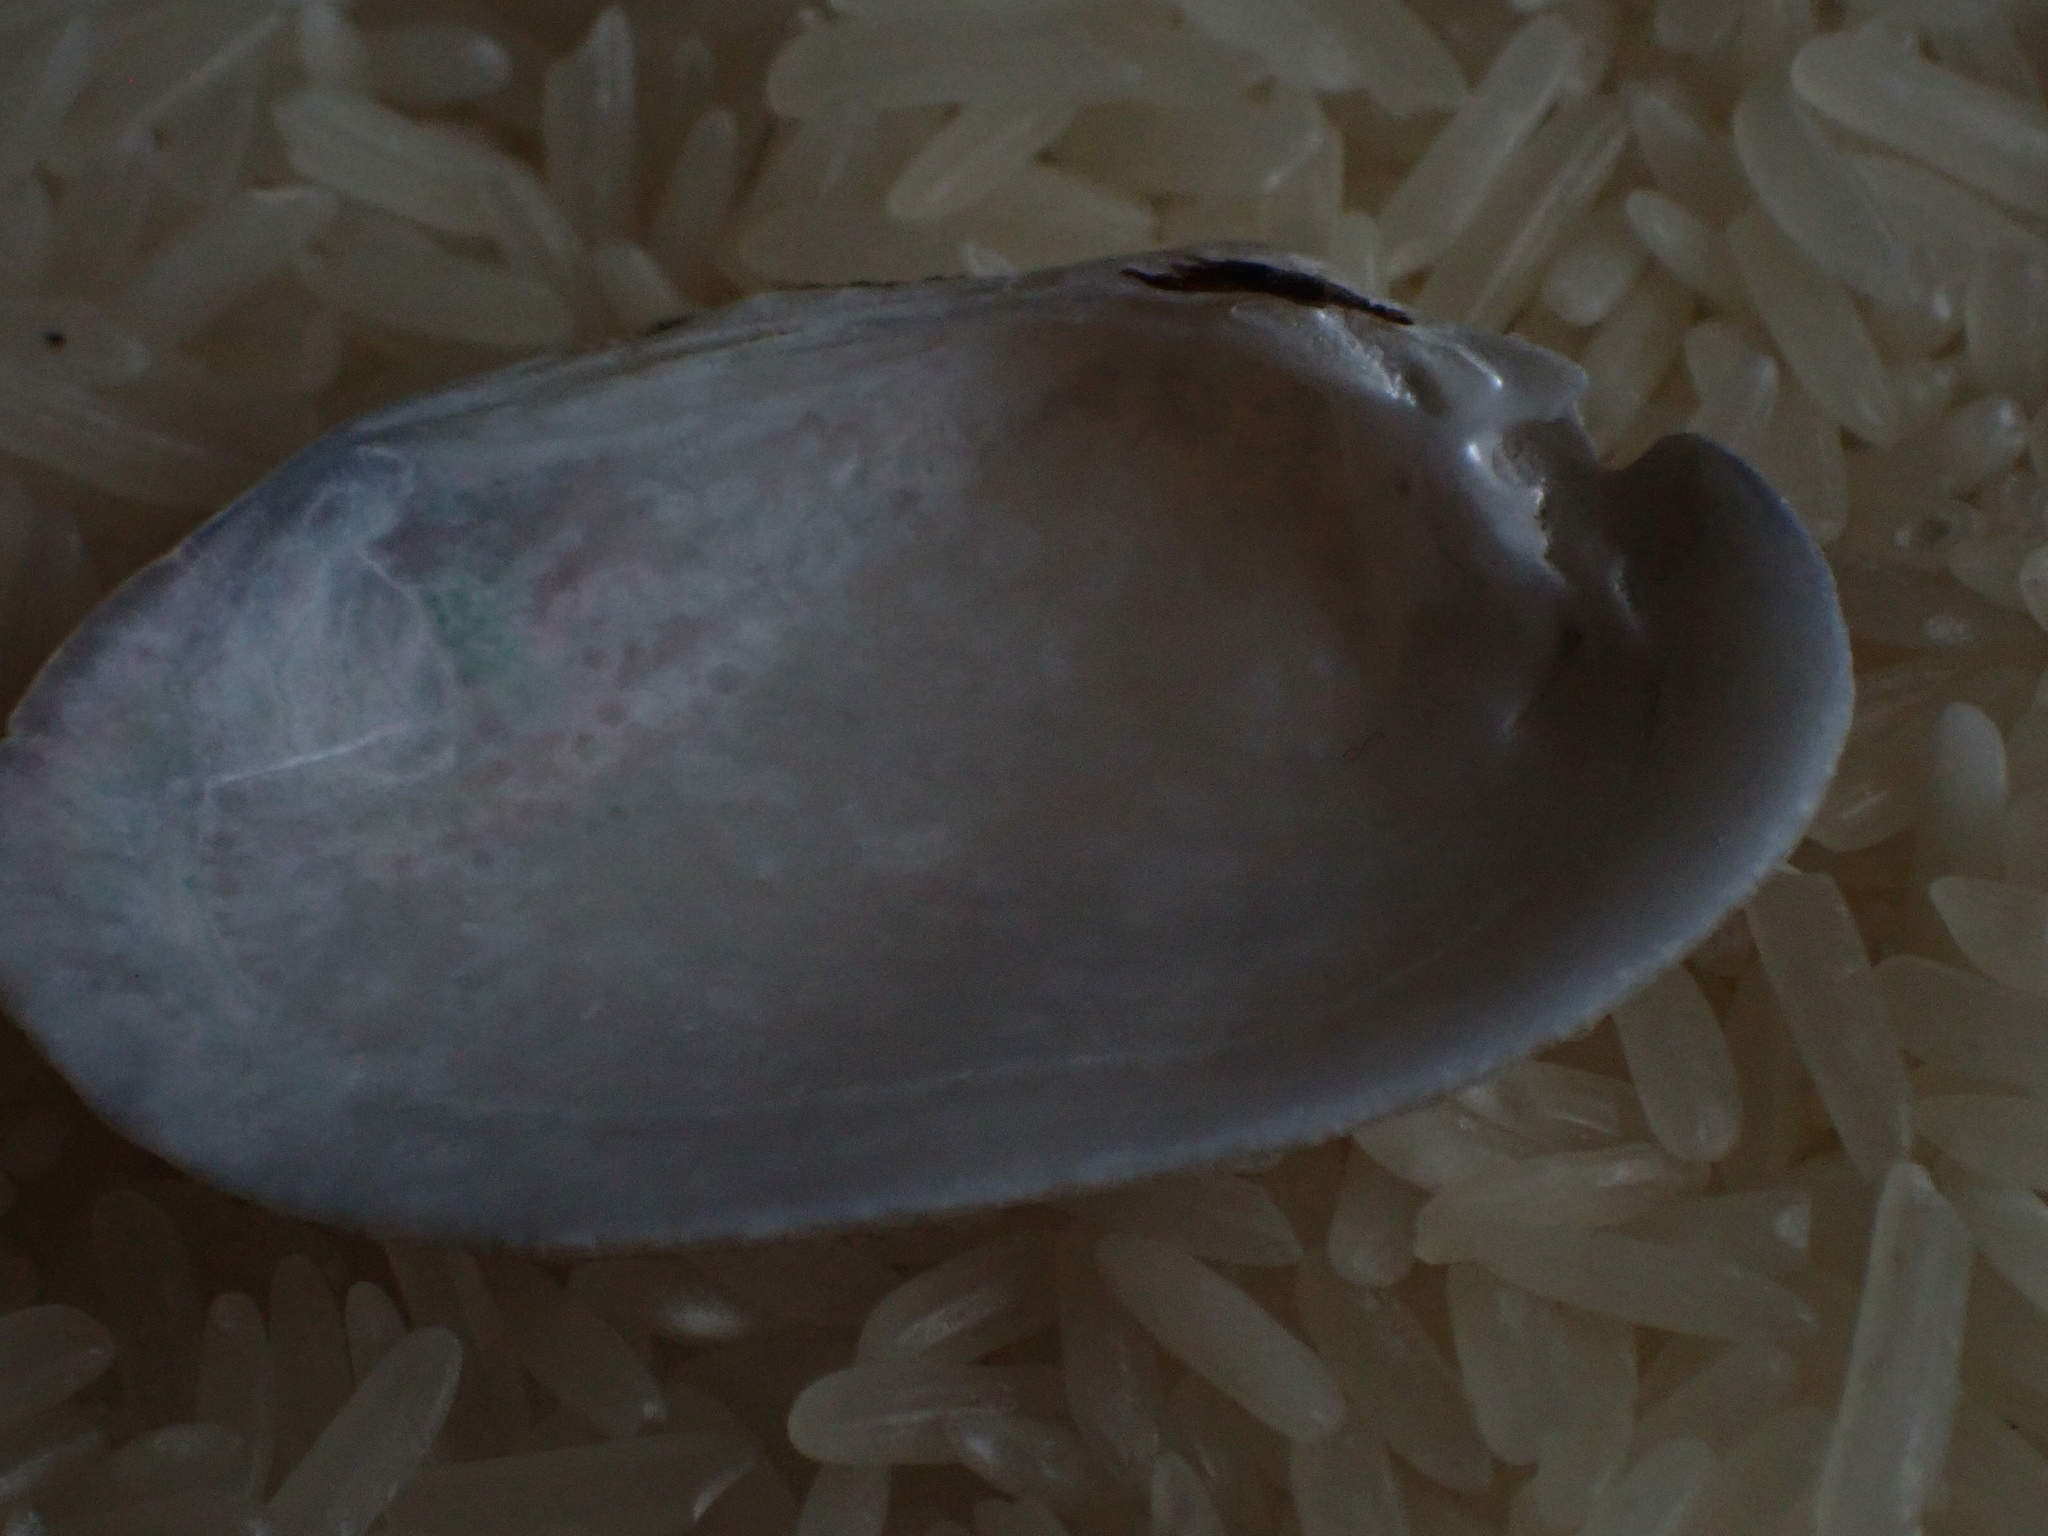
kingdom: Animalia
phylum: Mollusca
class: Bivalvia
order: Unionida
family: Unionidae
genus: Lampsilis
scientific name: Lampsilis siliquoidea
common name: Fatmucket
